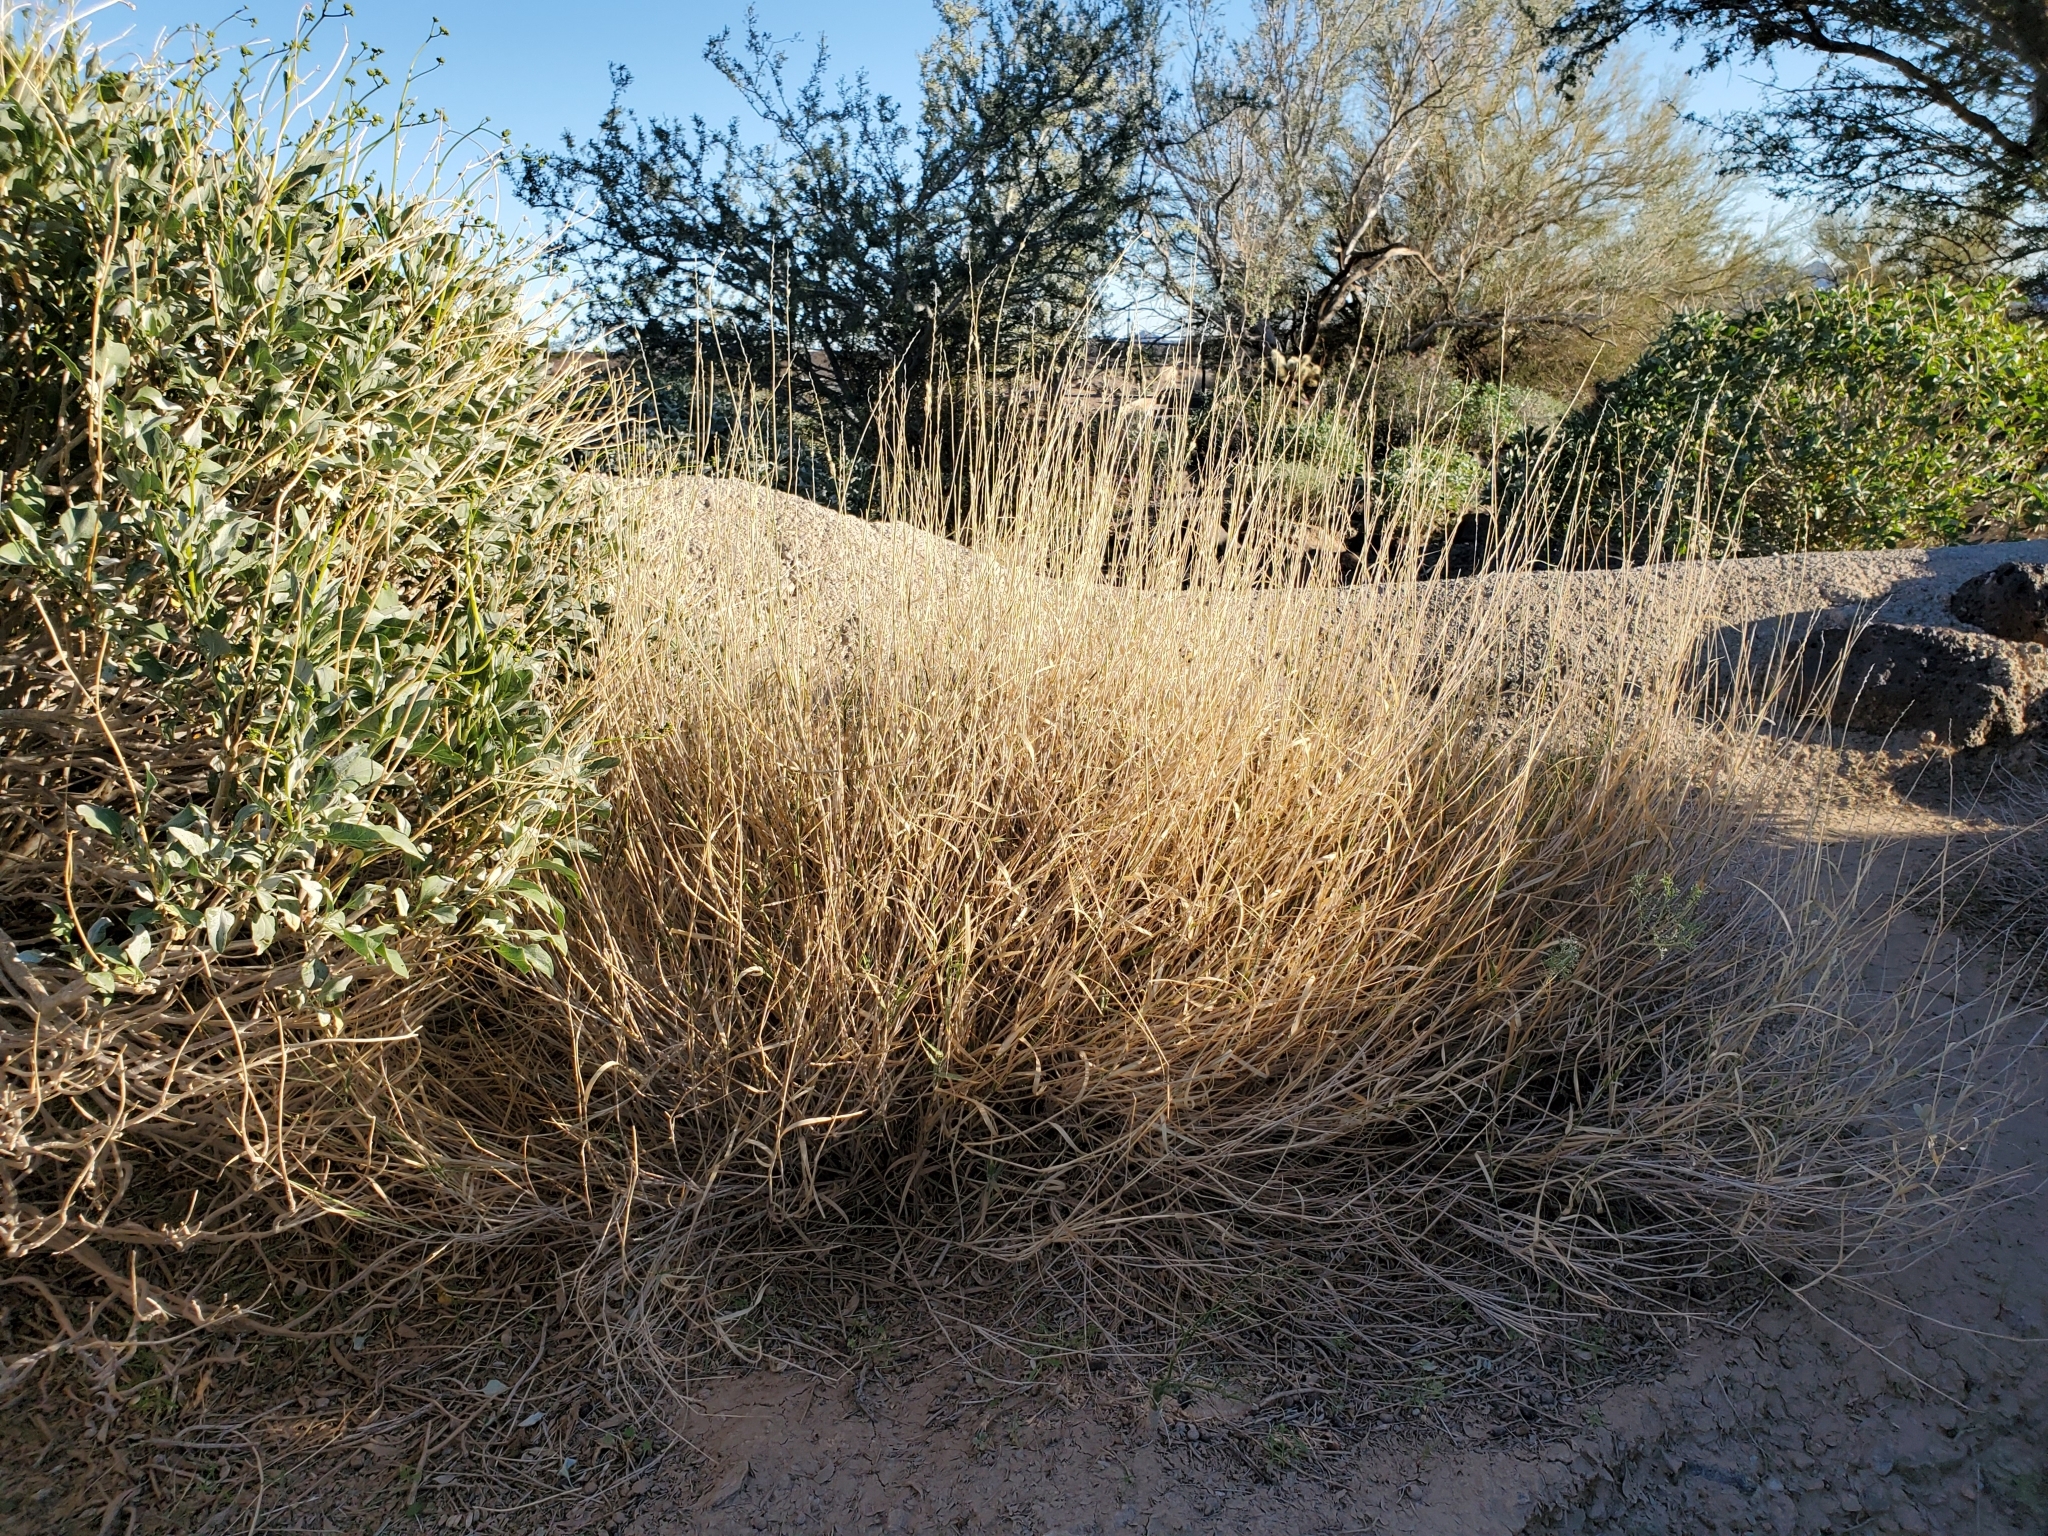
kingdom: Plantae
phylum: Tracheophyta
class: Liliopsida
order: Poales
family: Poaceae
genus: Hilaria
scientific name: Hilaria rigida
